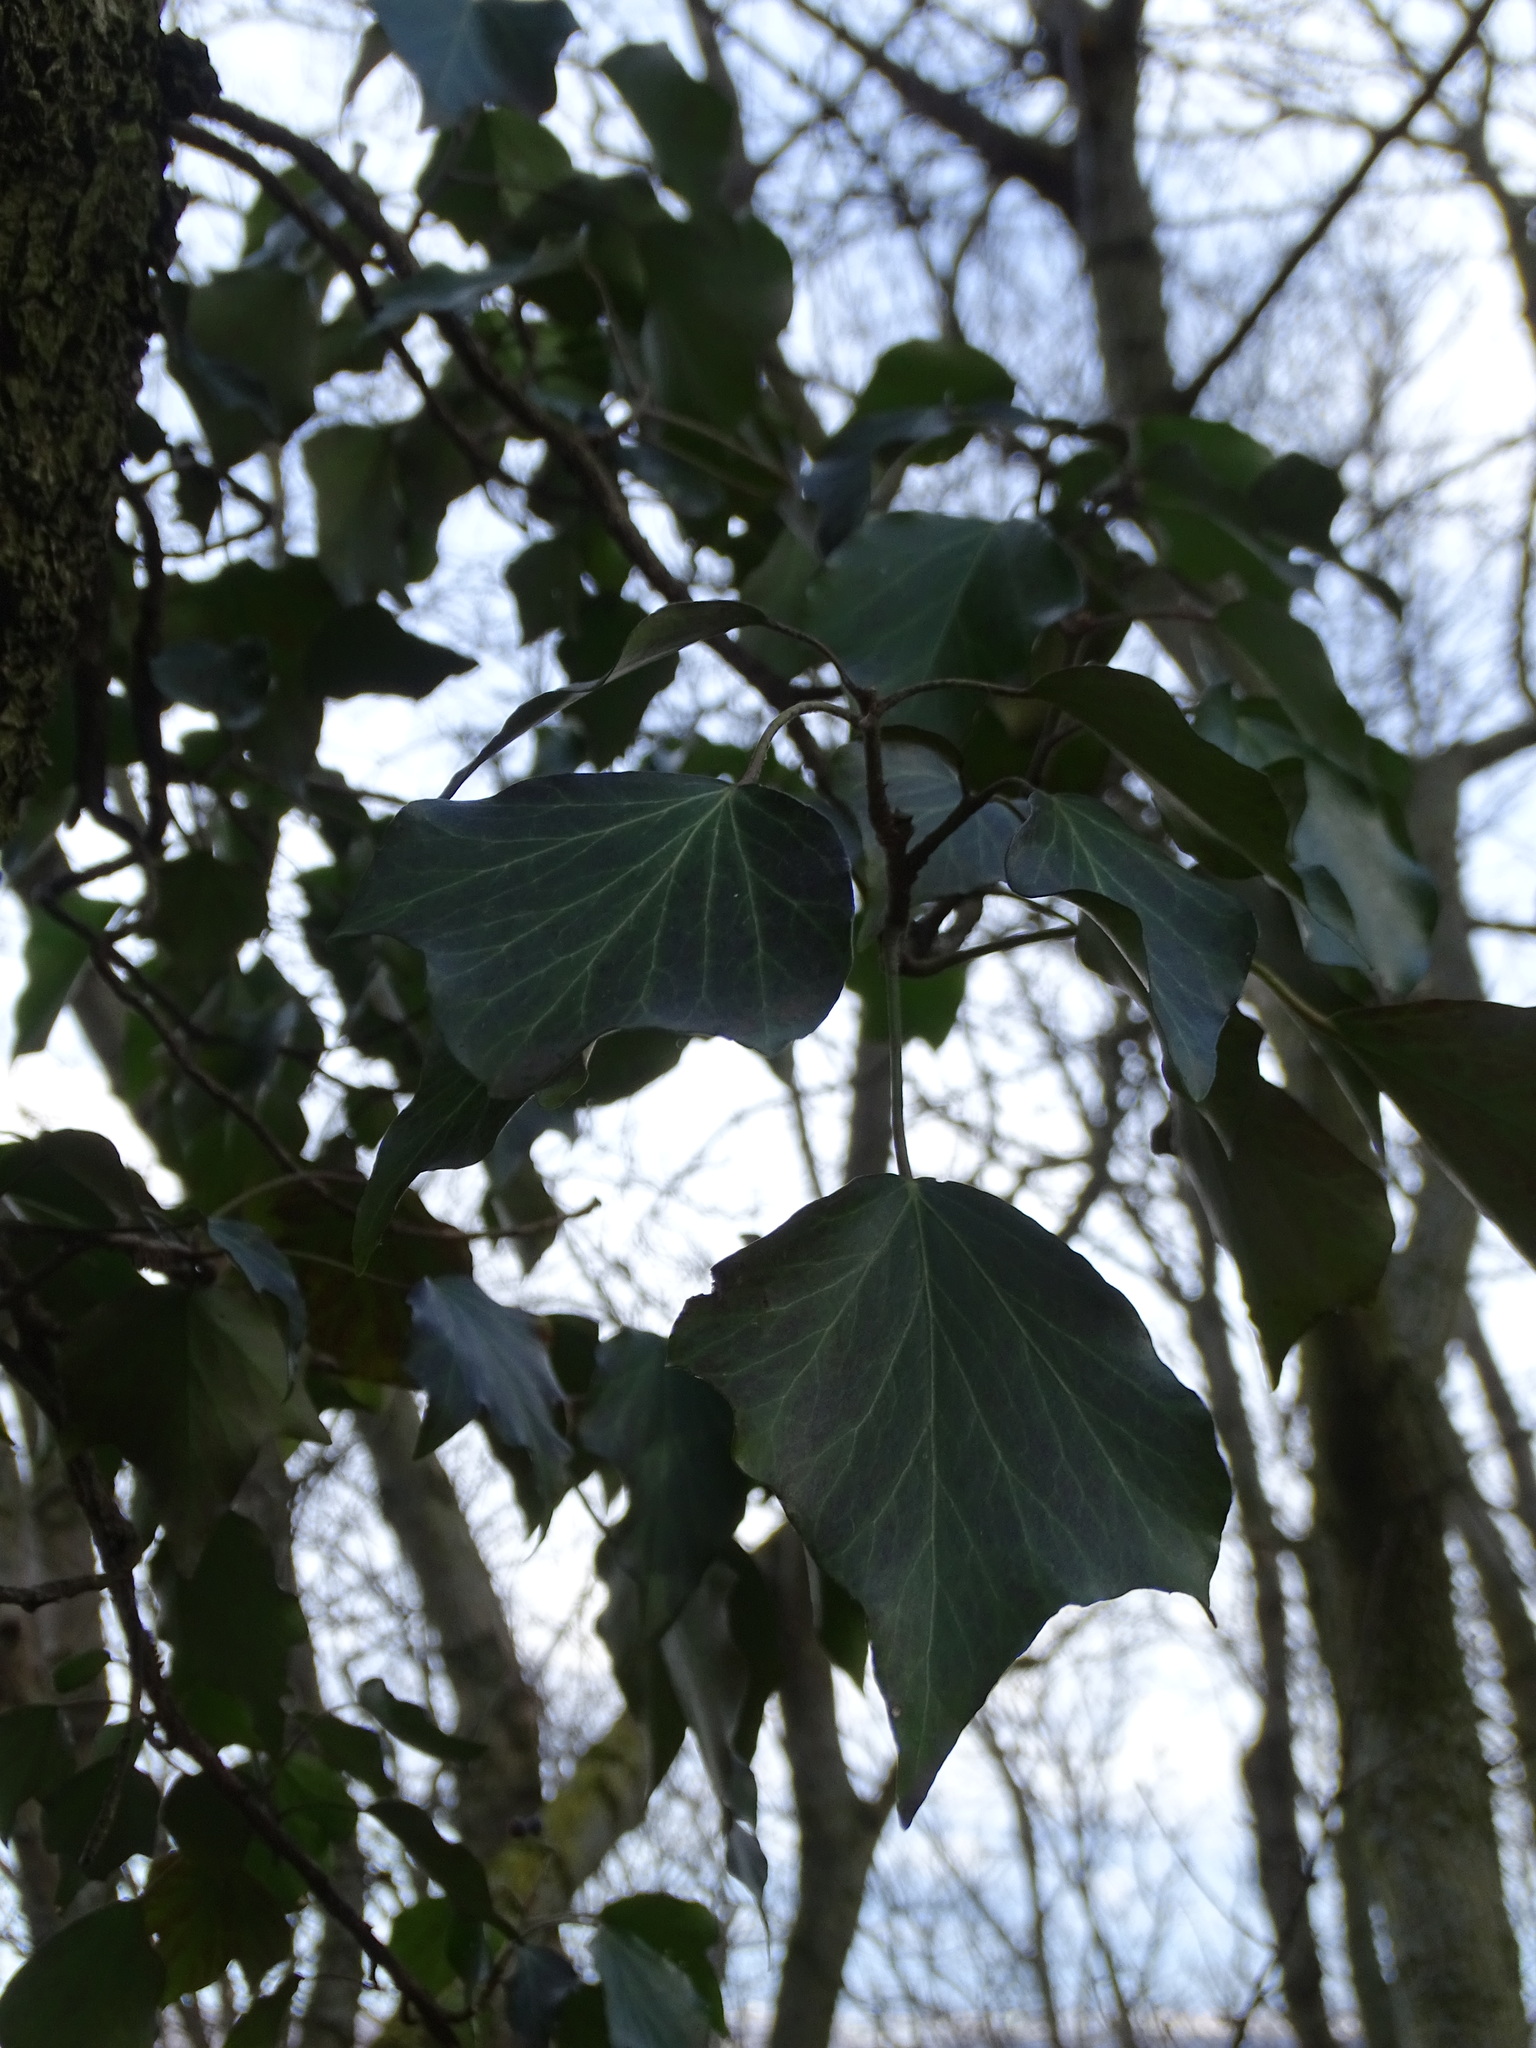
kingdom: Plantae
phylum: Tracheophyta
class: Magnoliopsida
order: Apiales
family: Araliaceae
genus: Hedera
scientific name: Hedera helix
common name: Ivy
